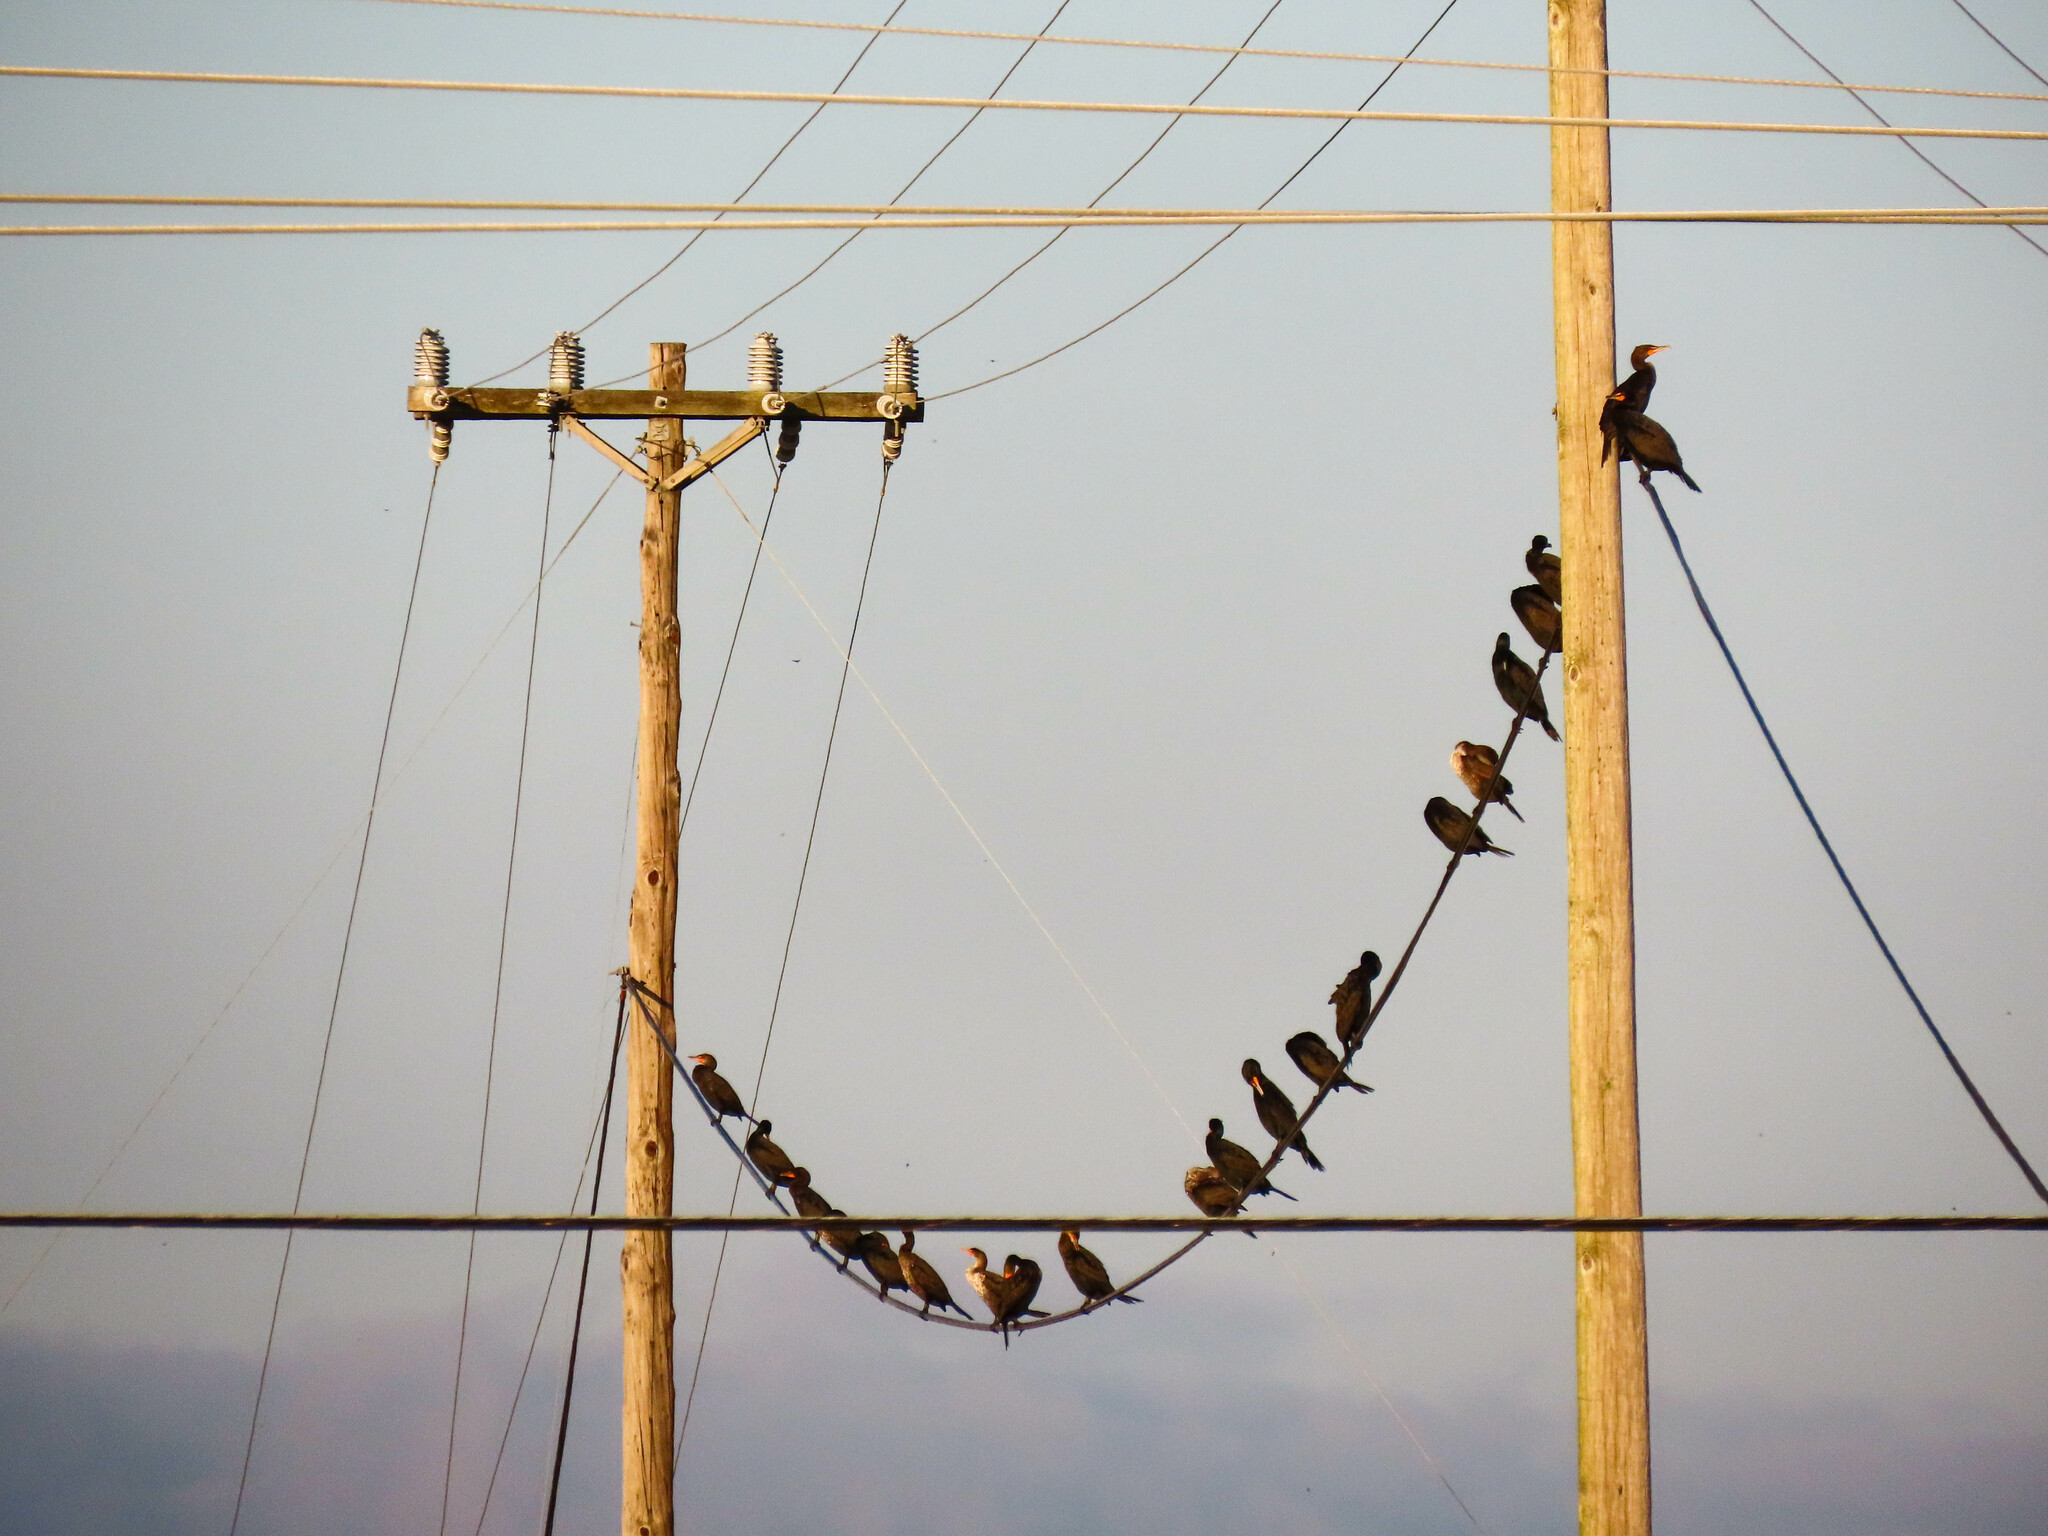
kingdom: Animalia
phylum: Chordata
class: Aves
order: Suliformes
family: Phalacrocoracidae
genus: Phalacrocorax
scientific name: Phalacrocorax auritus
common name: Double-crested cormorant
